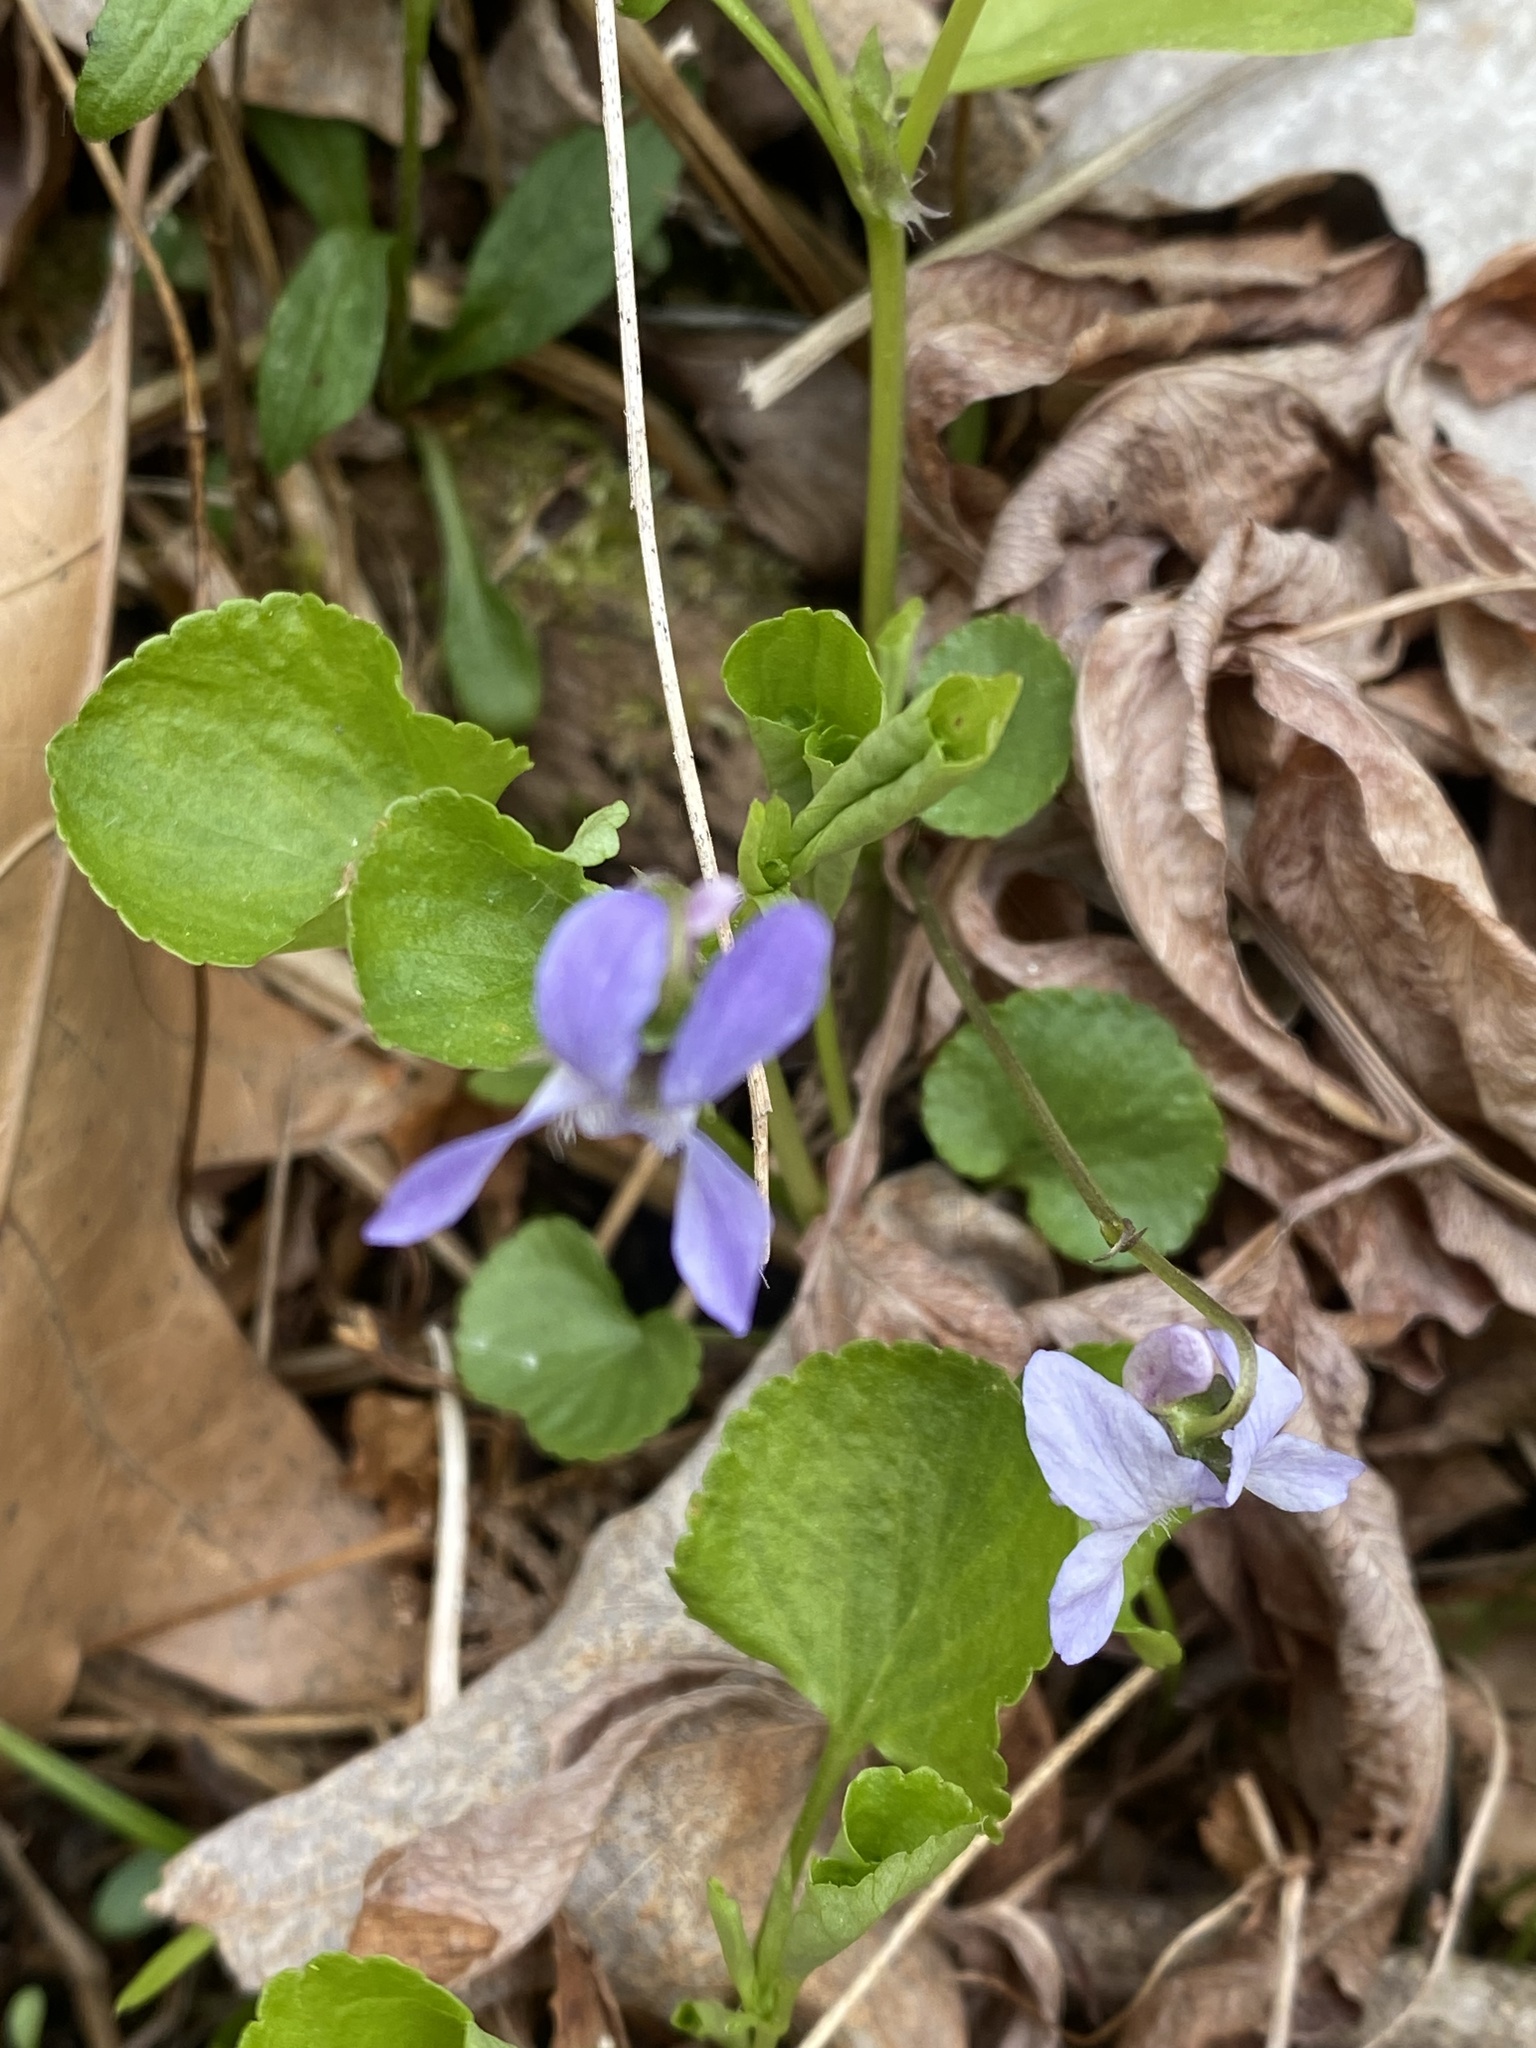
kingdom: Plantae
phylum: Tracheophyta
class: Magnoliopsida
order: Malpighiales
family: Violaceae
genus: Viola
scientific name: Viola labradorica
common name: Labrador violet
